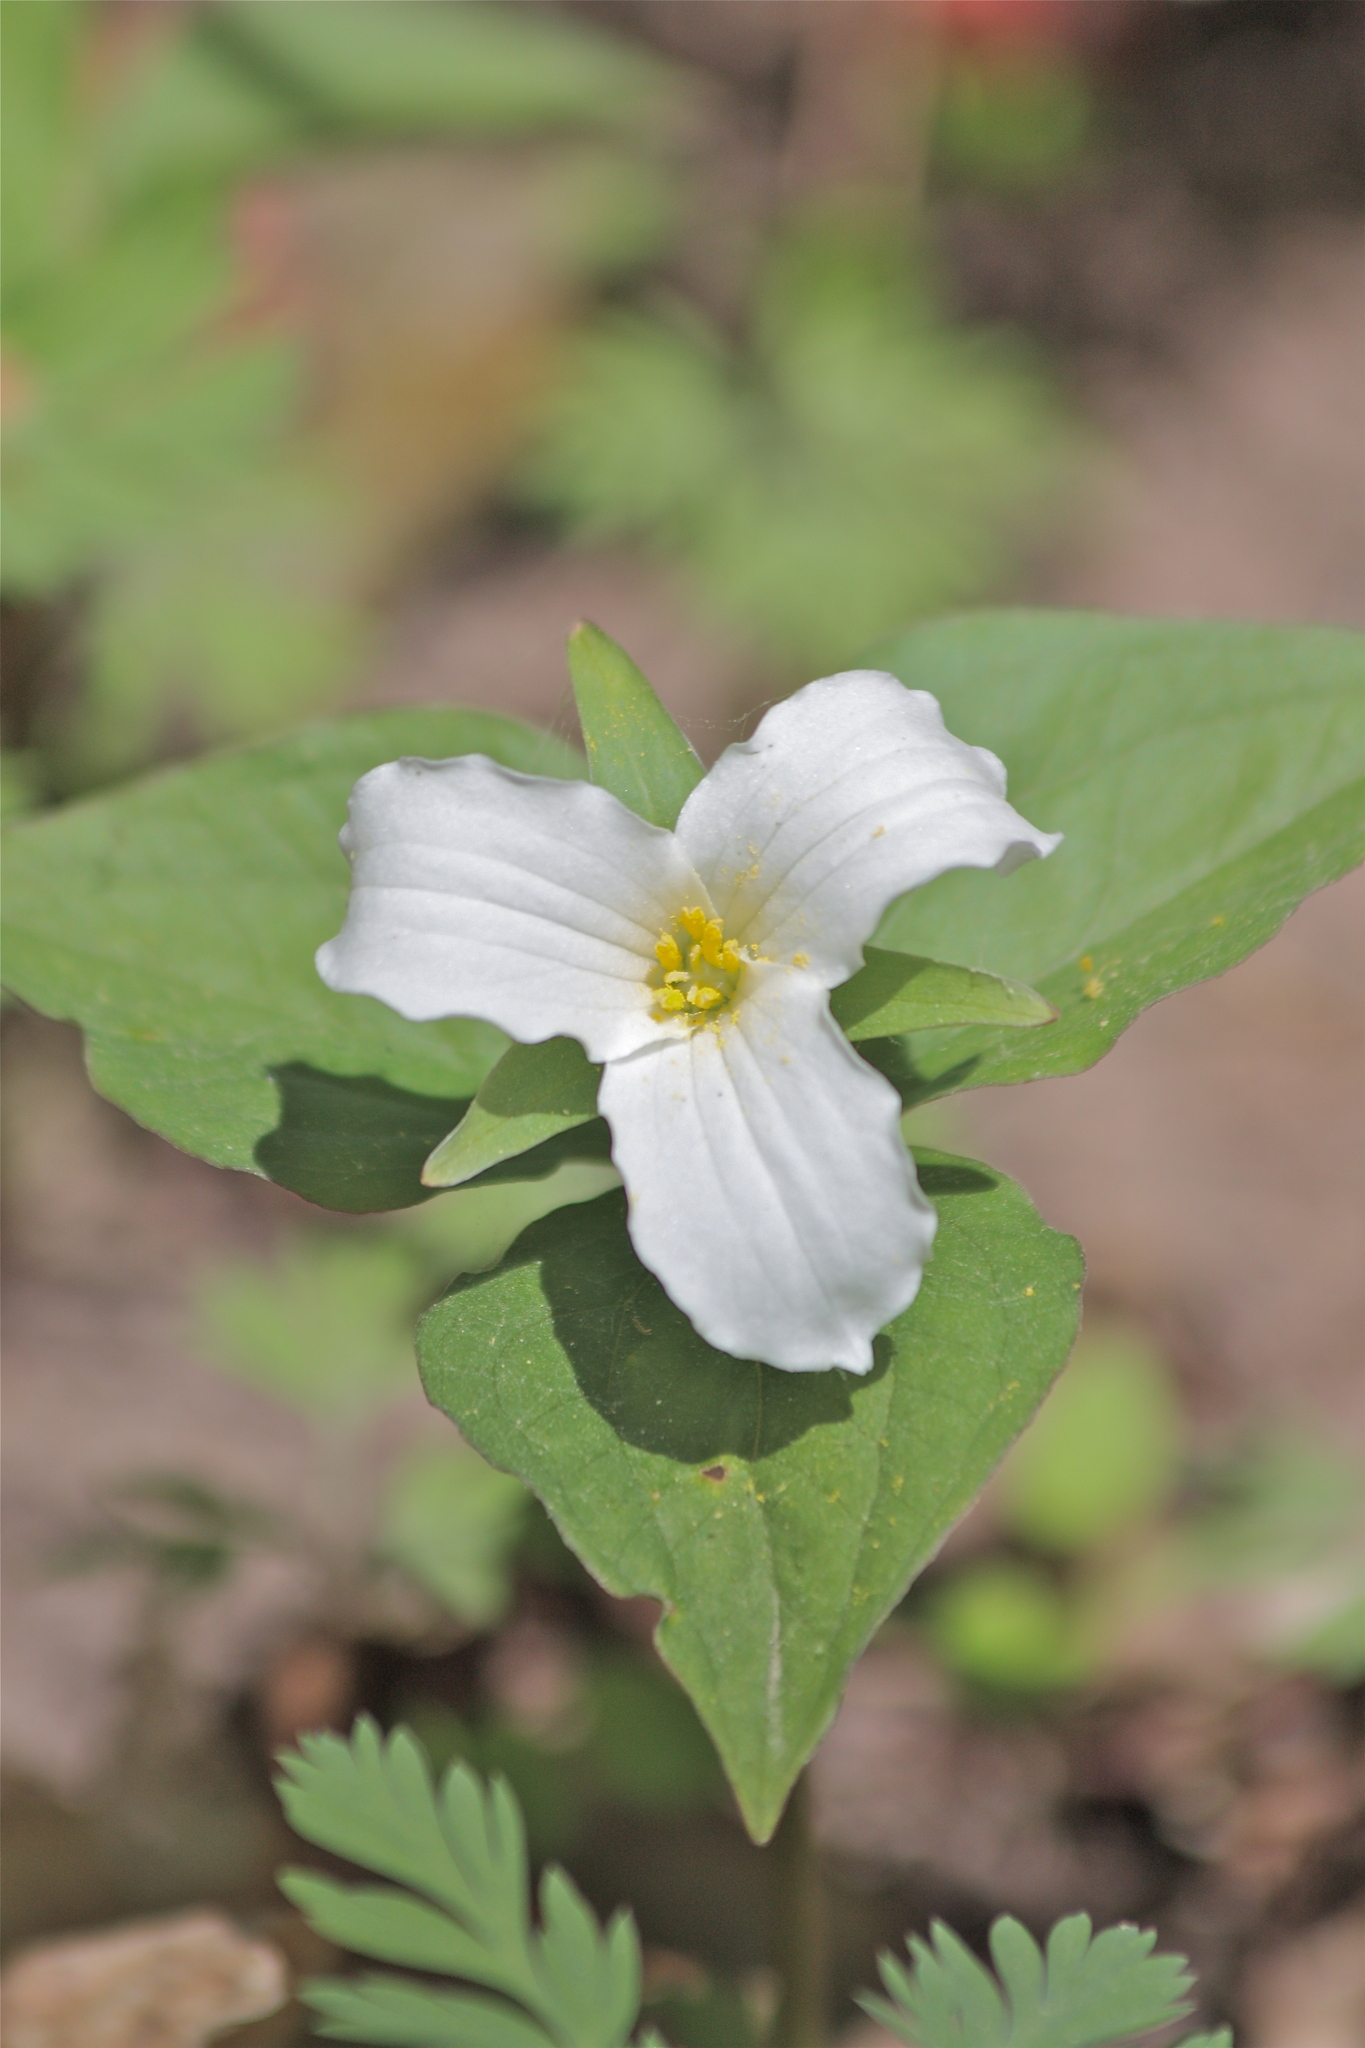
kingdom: Plantae
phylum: Tracheophyta
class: Liliopsida
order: Liliales
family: Melanthiaceae
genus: Trillium
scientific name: Trillium grandiflorum
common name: Great white trillium
